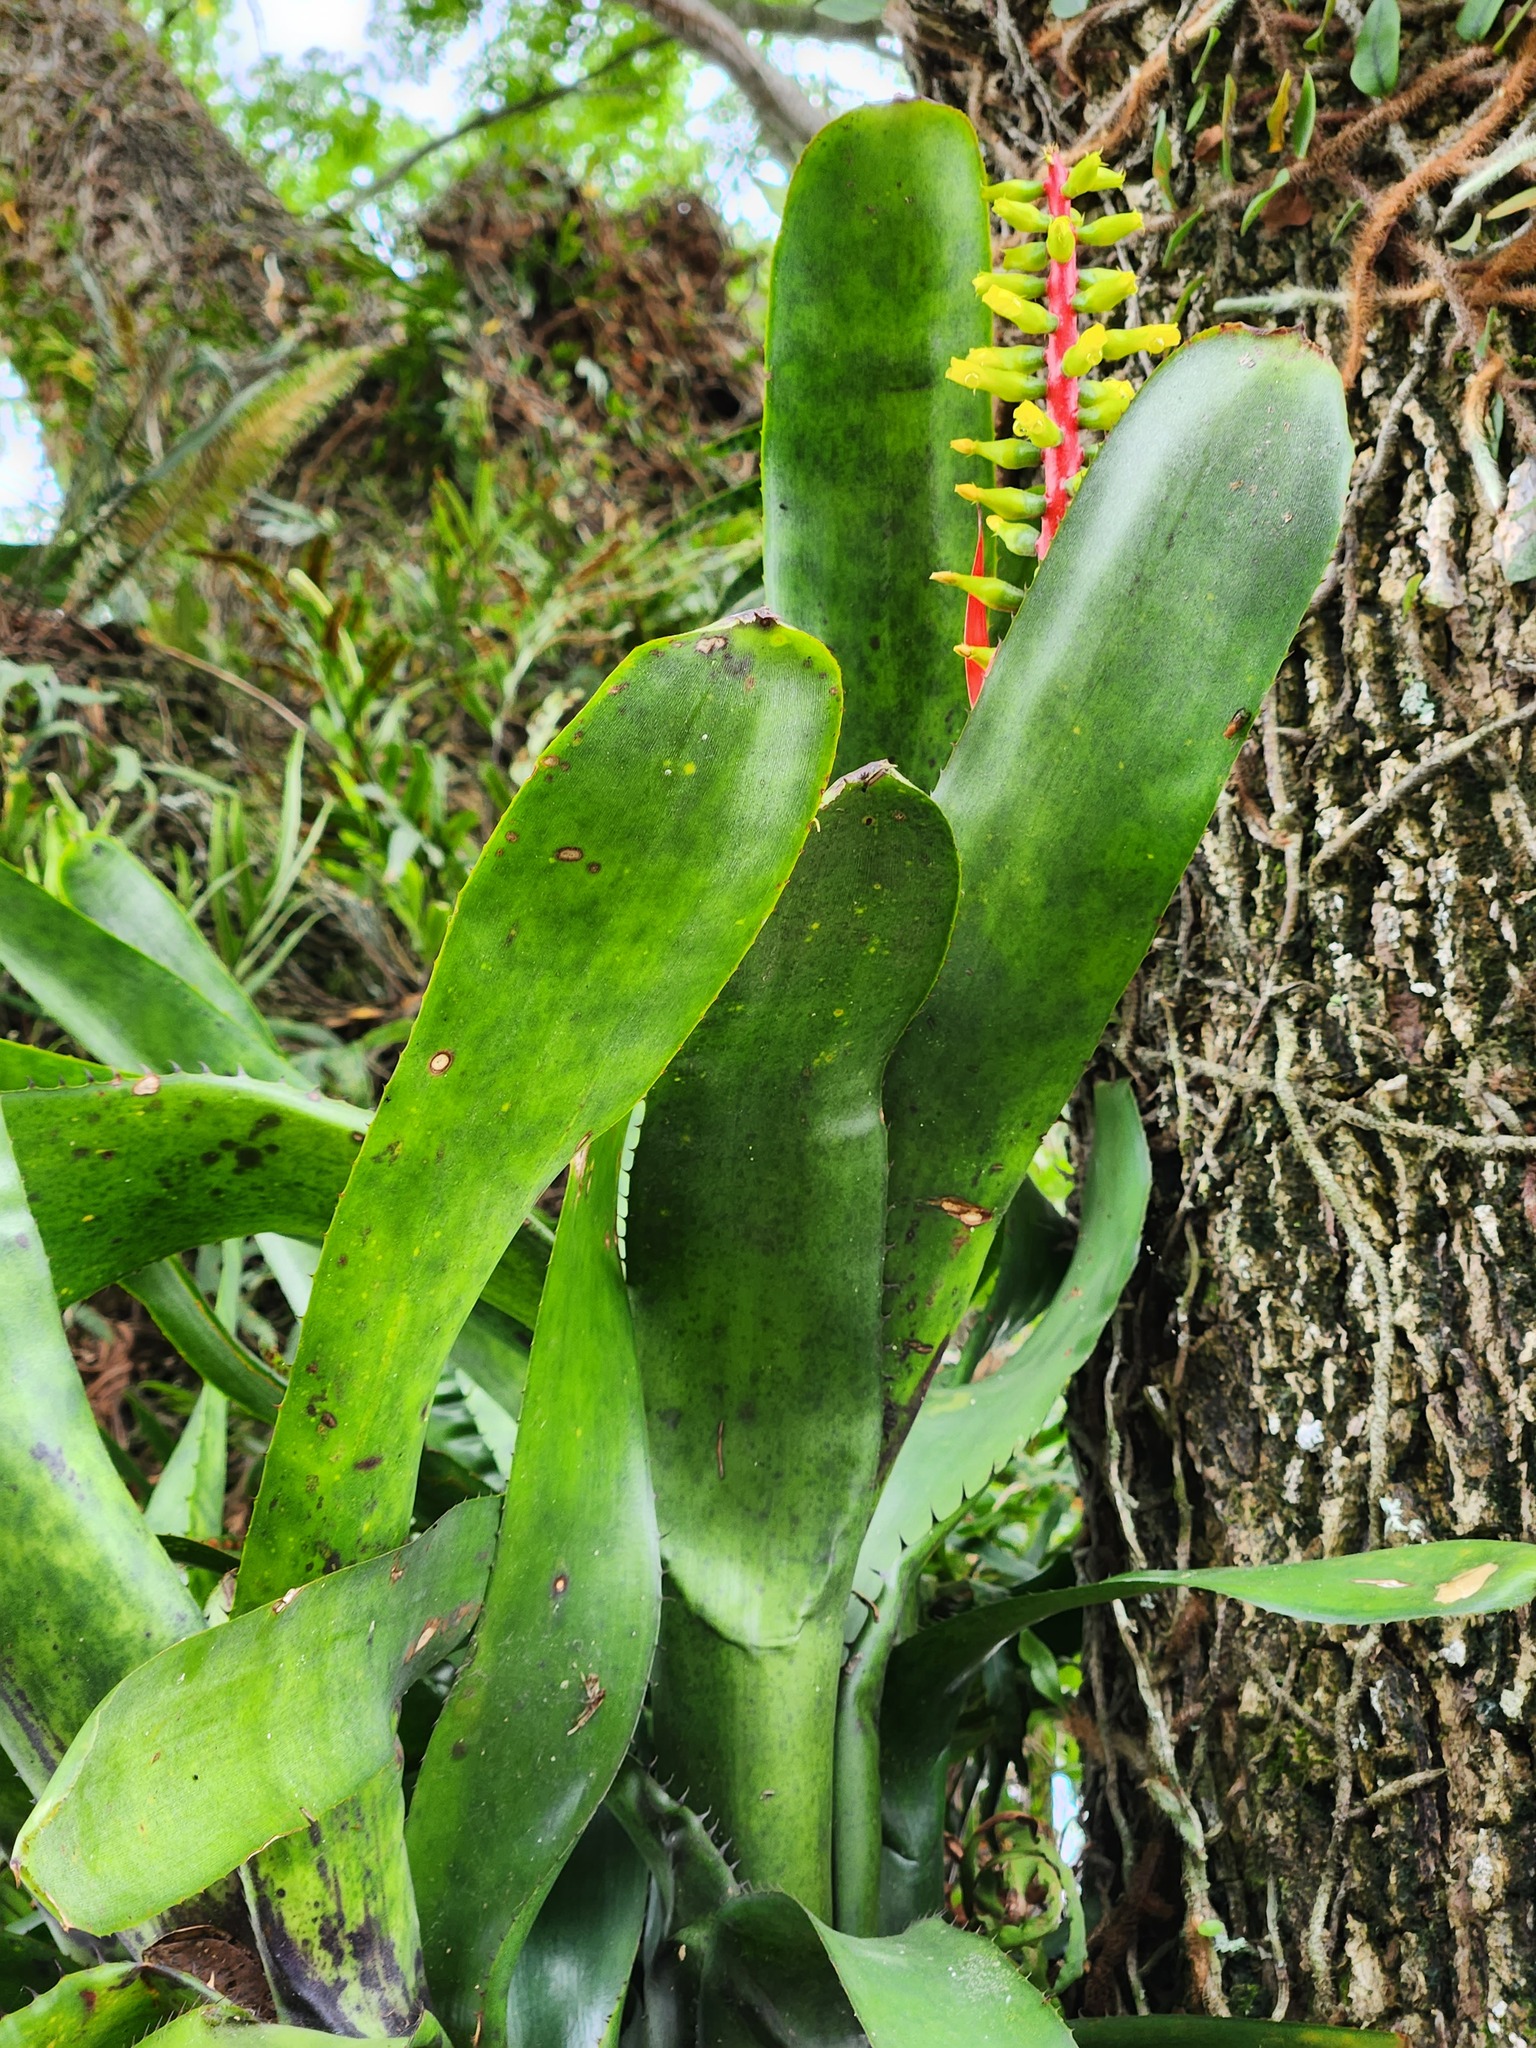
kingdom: Plantae
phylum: Tracheophyta
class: Liliopsida
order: Poales
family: Bromeliaceae
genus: Aechmea
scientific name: Aechmea nudicaulis
